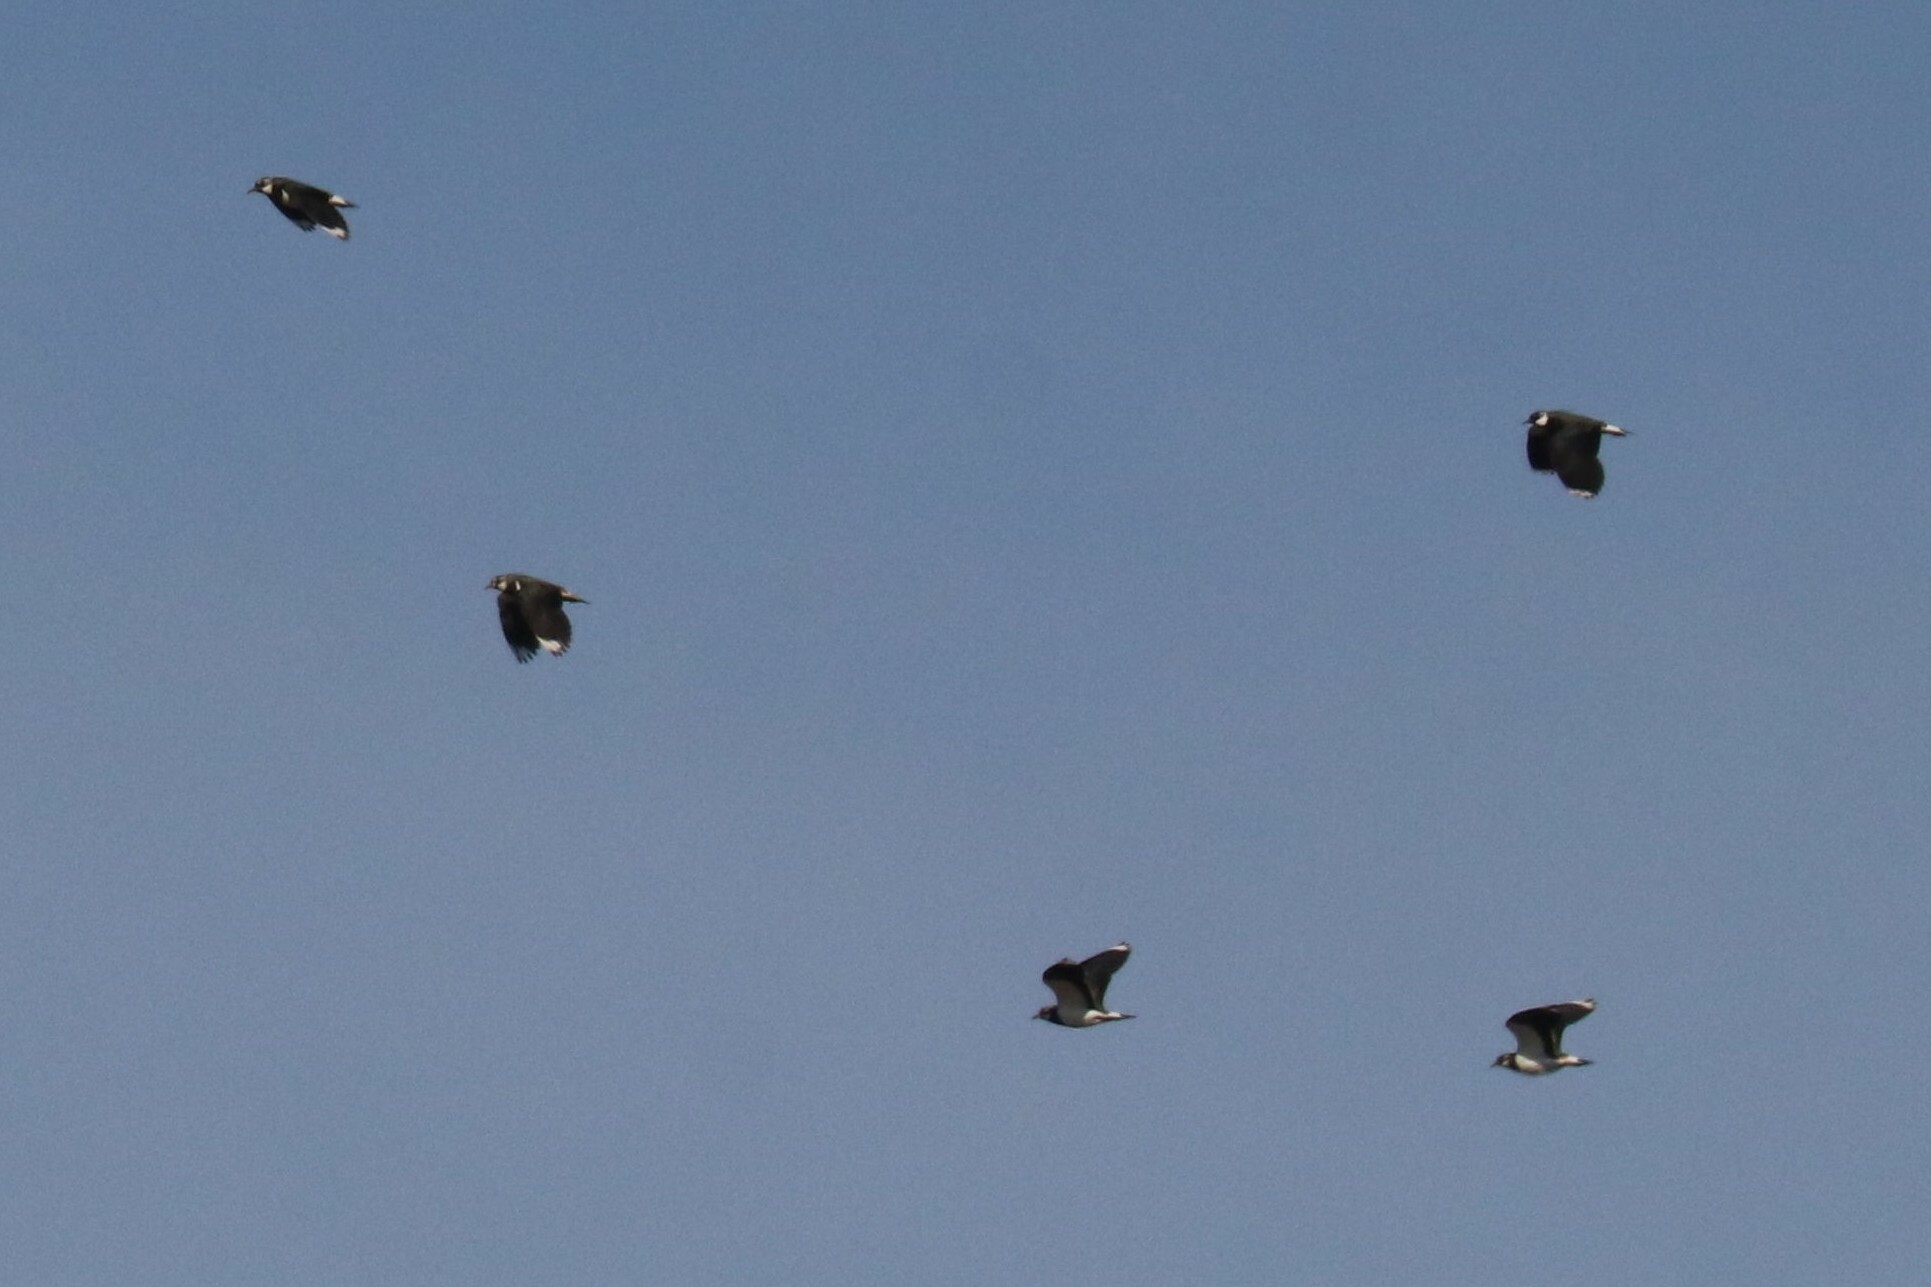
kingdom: Animalia
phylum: Chordata
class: Aves
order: Charadriiformes
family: Charadriidae
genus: Vanellus
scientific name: Vanellus vanellus
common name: Northern lapwing
